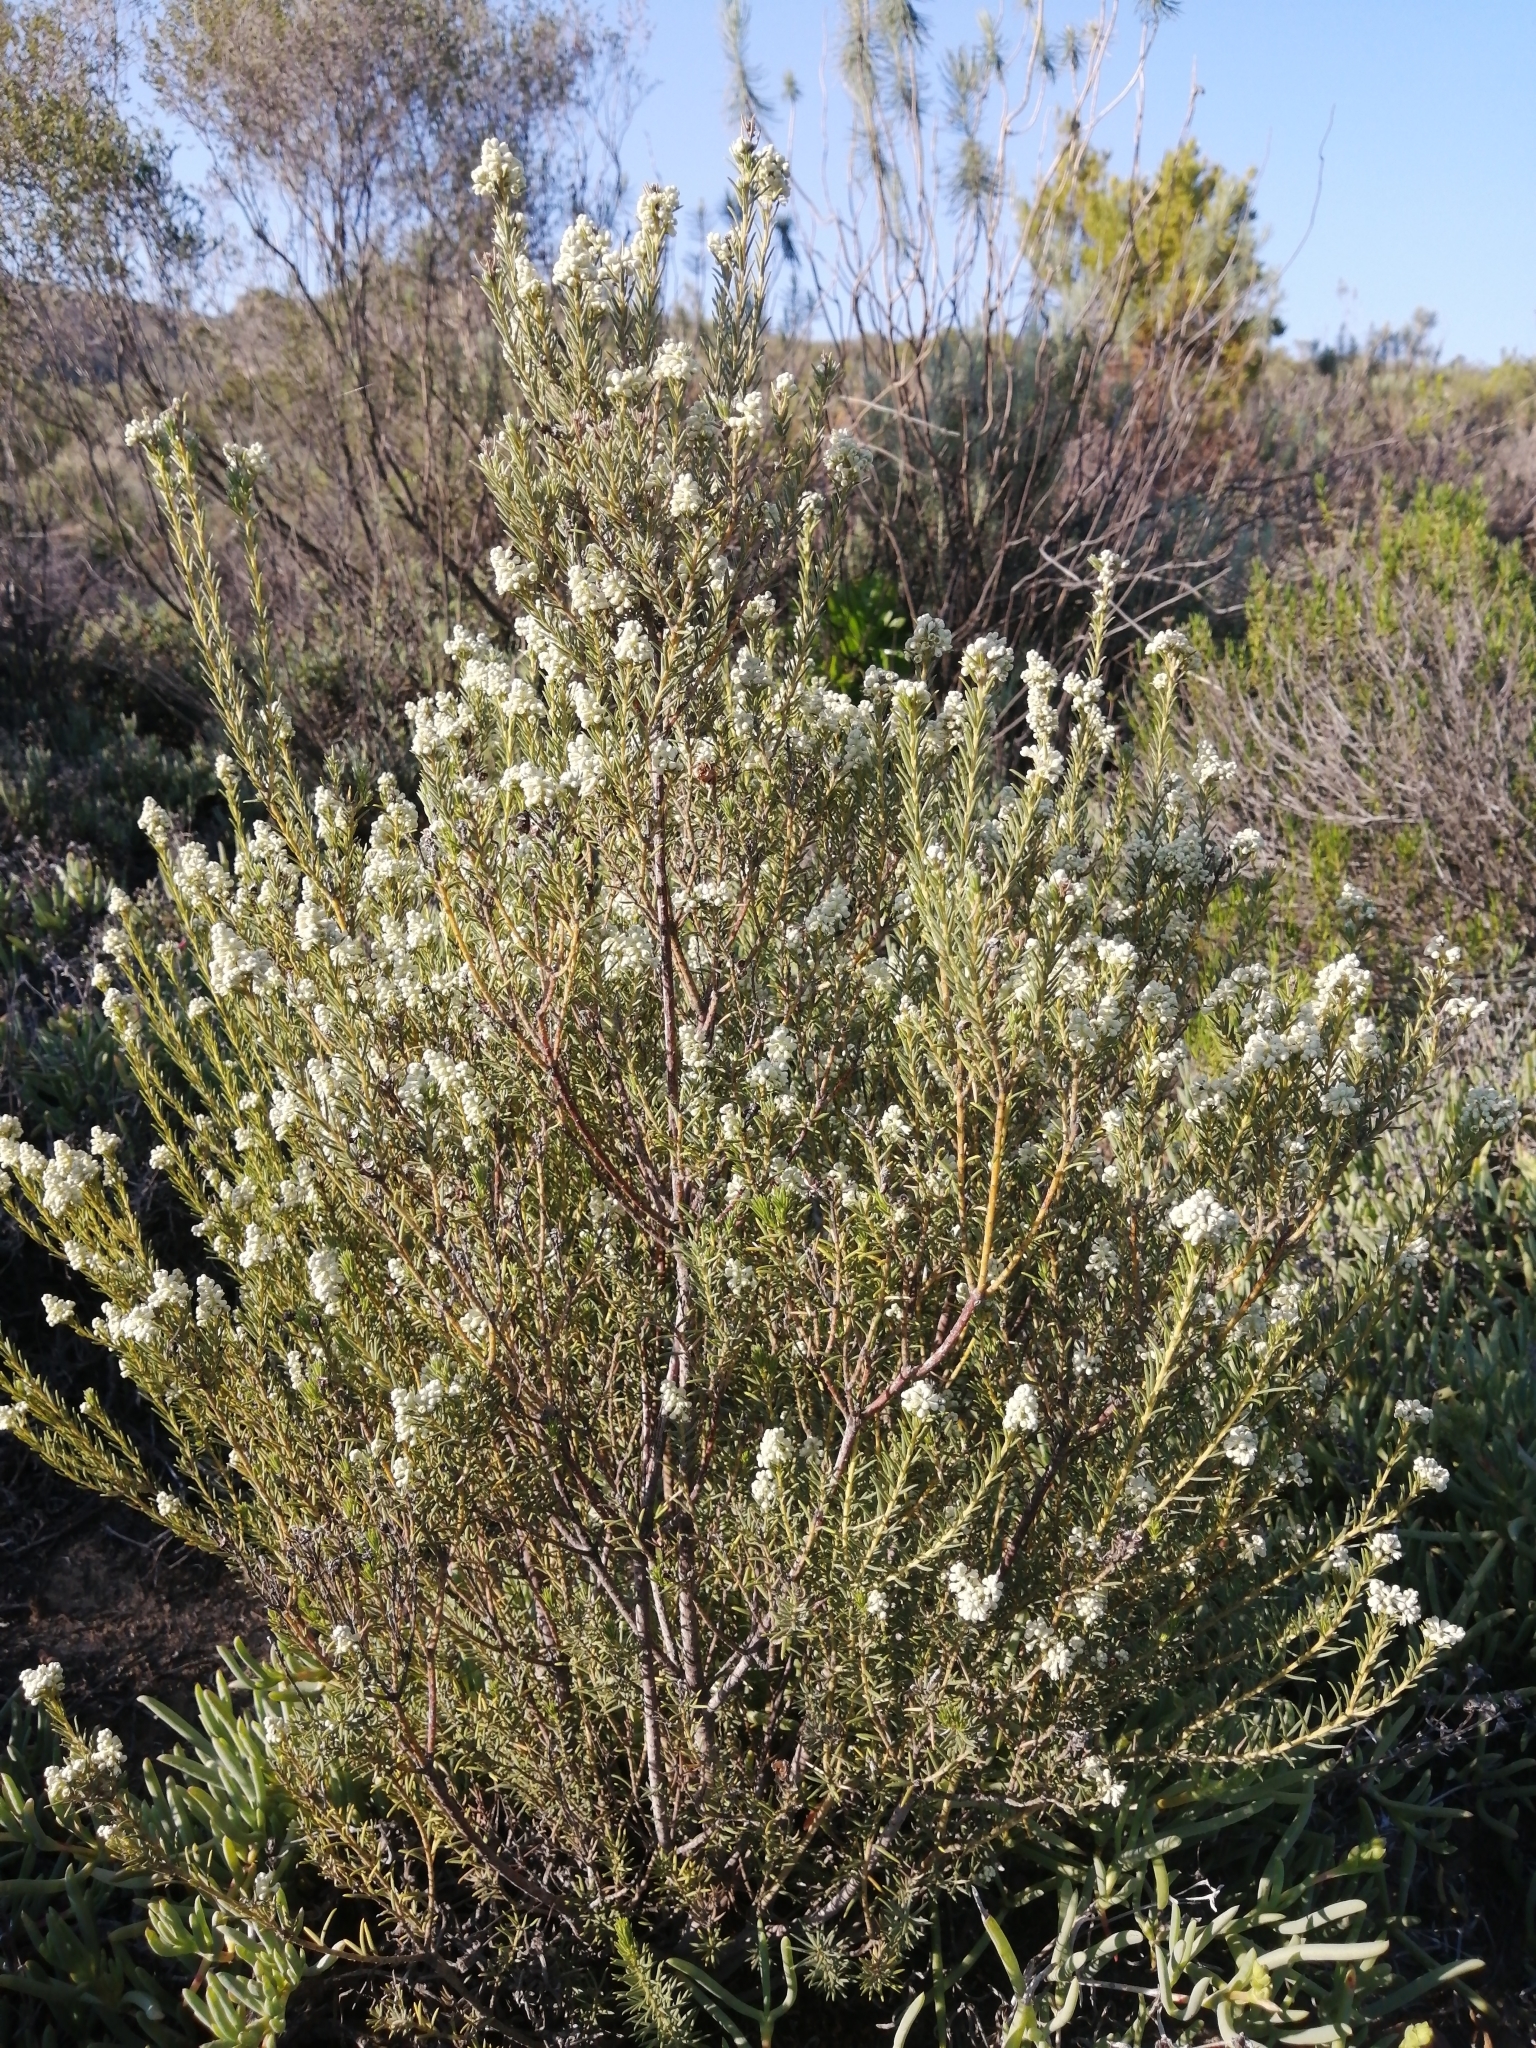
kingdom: Plantae
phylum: Tracheophyta
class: Magnoliopsida
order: Rosales
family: Rhamnaceae
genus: Phylica
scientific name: Phylica rigidifolia
